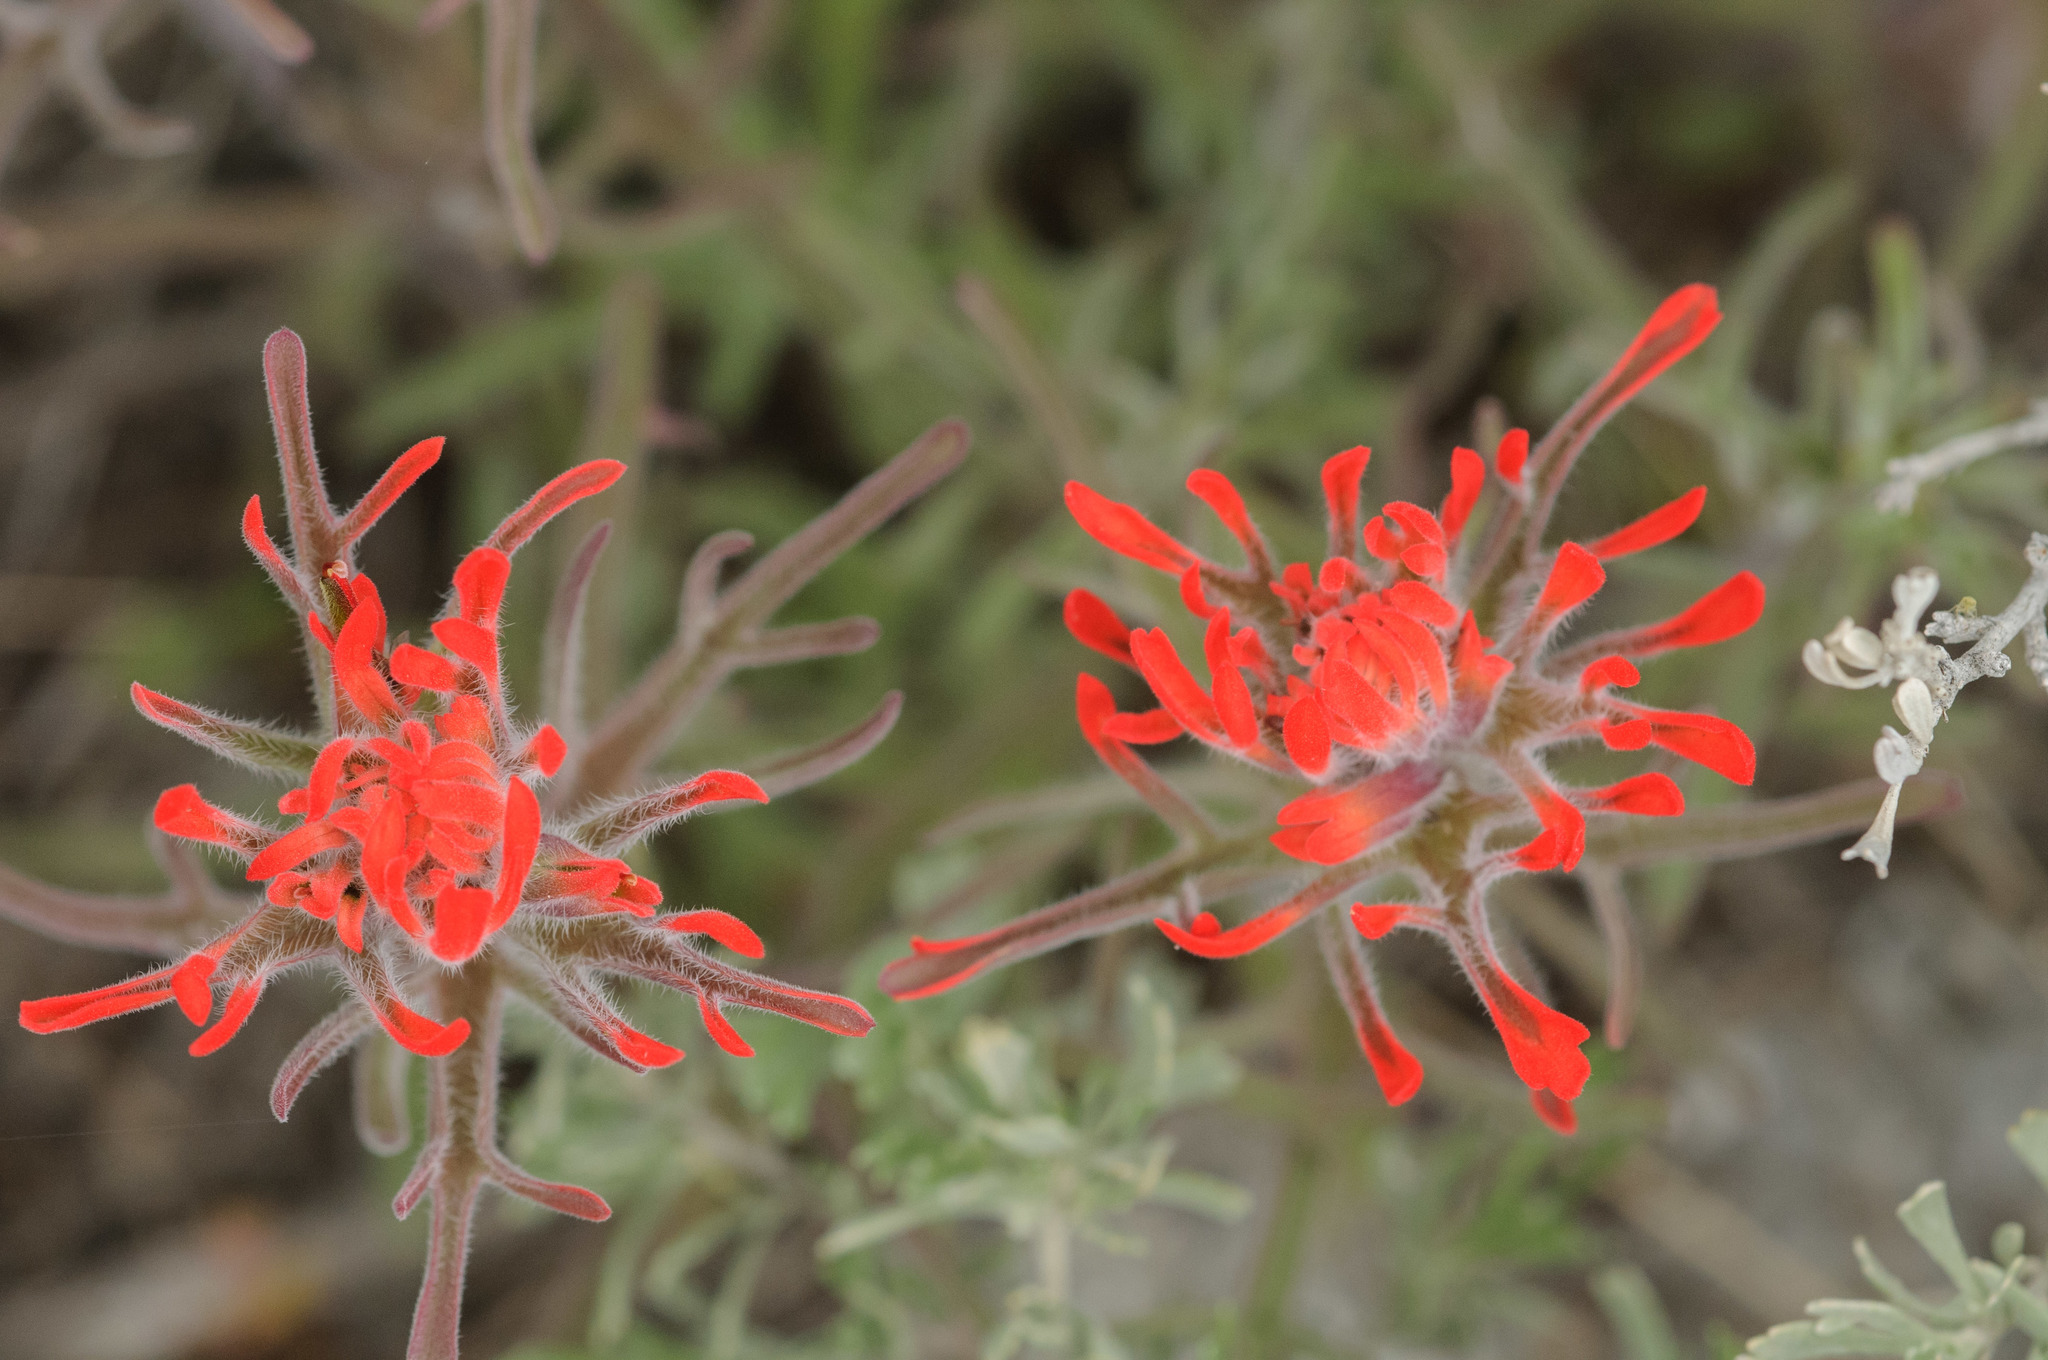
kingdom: Plantae
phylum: Tracheophyta
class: Magnoliopsida
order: Lamiales
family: Orobanchaceae
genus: Castilleja
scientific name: Castilleja chromosa
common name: Desert paintbrush
